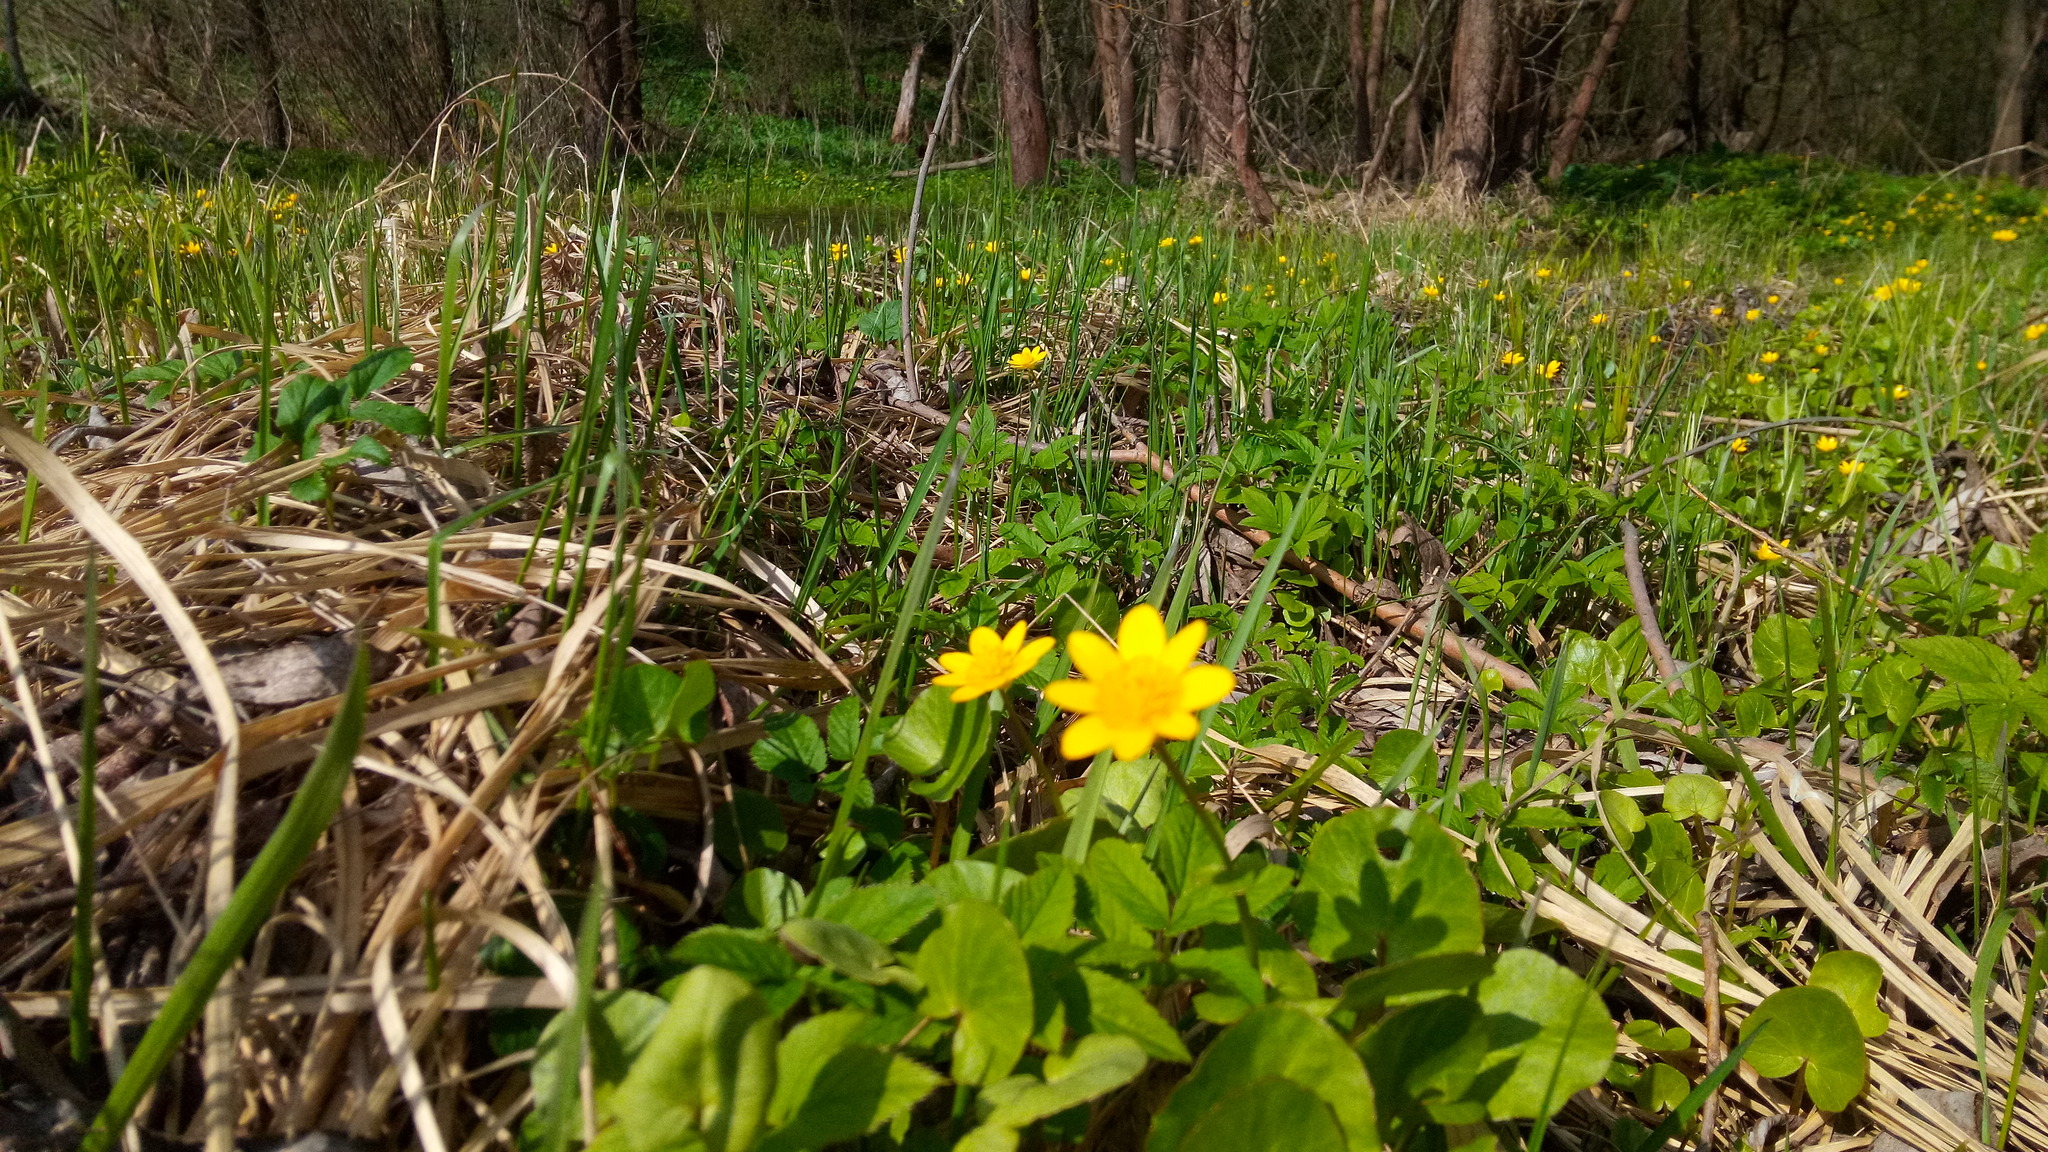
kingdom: Plantae
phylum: Tracheophyta
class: Magnoliopsida
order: Ranunculales
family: Ranunculaceae
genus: Ficaria
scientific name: Ficaria verna
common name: Lesser celandine
